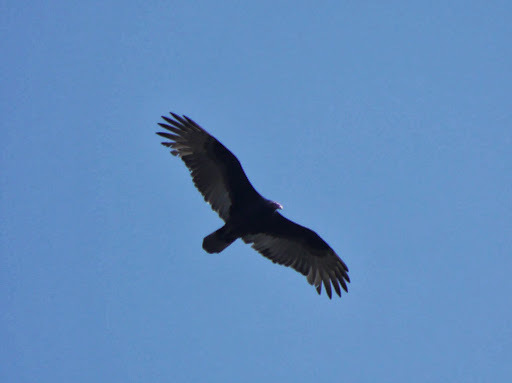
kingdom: Animalia
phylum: Chordata
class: Aves
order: Accipitriformes
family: Cathartidae
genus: Cathartes
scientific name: Cathartes aura
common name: Turkey vulture
